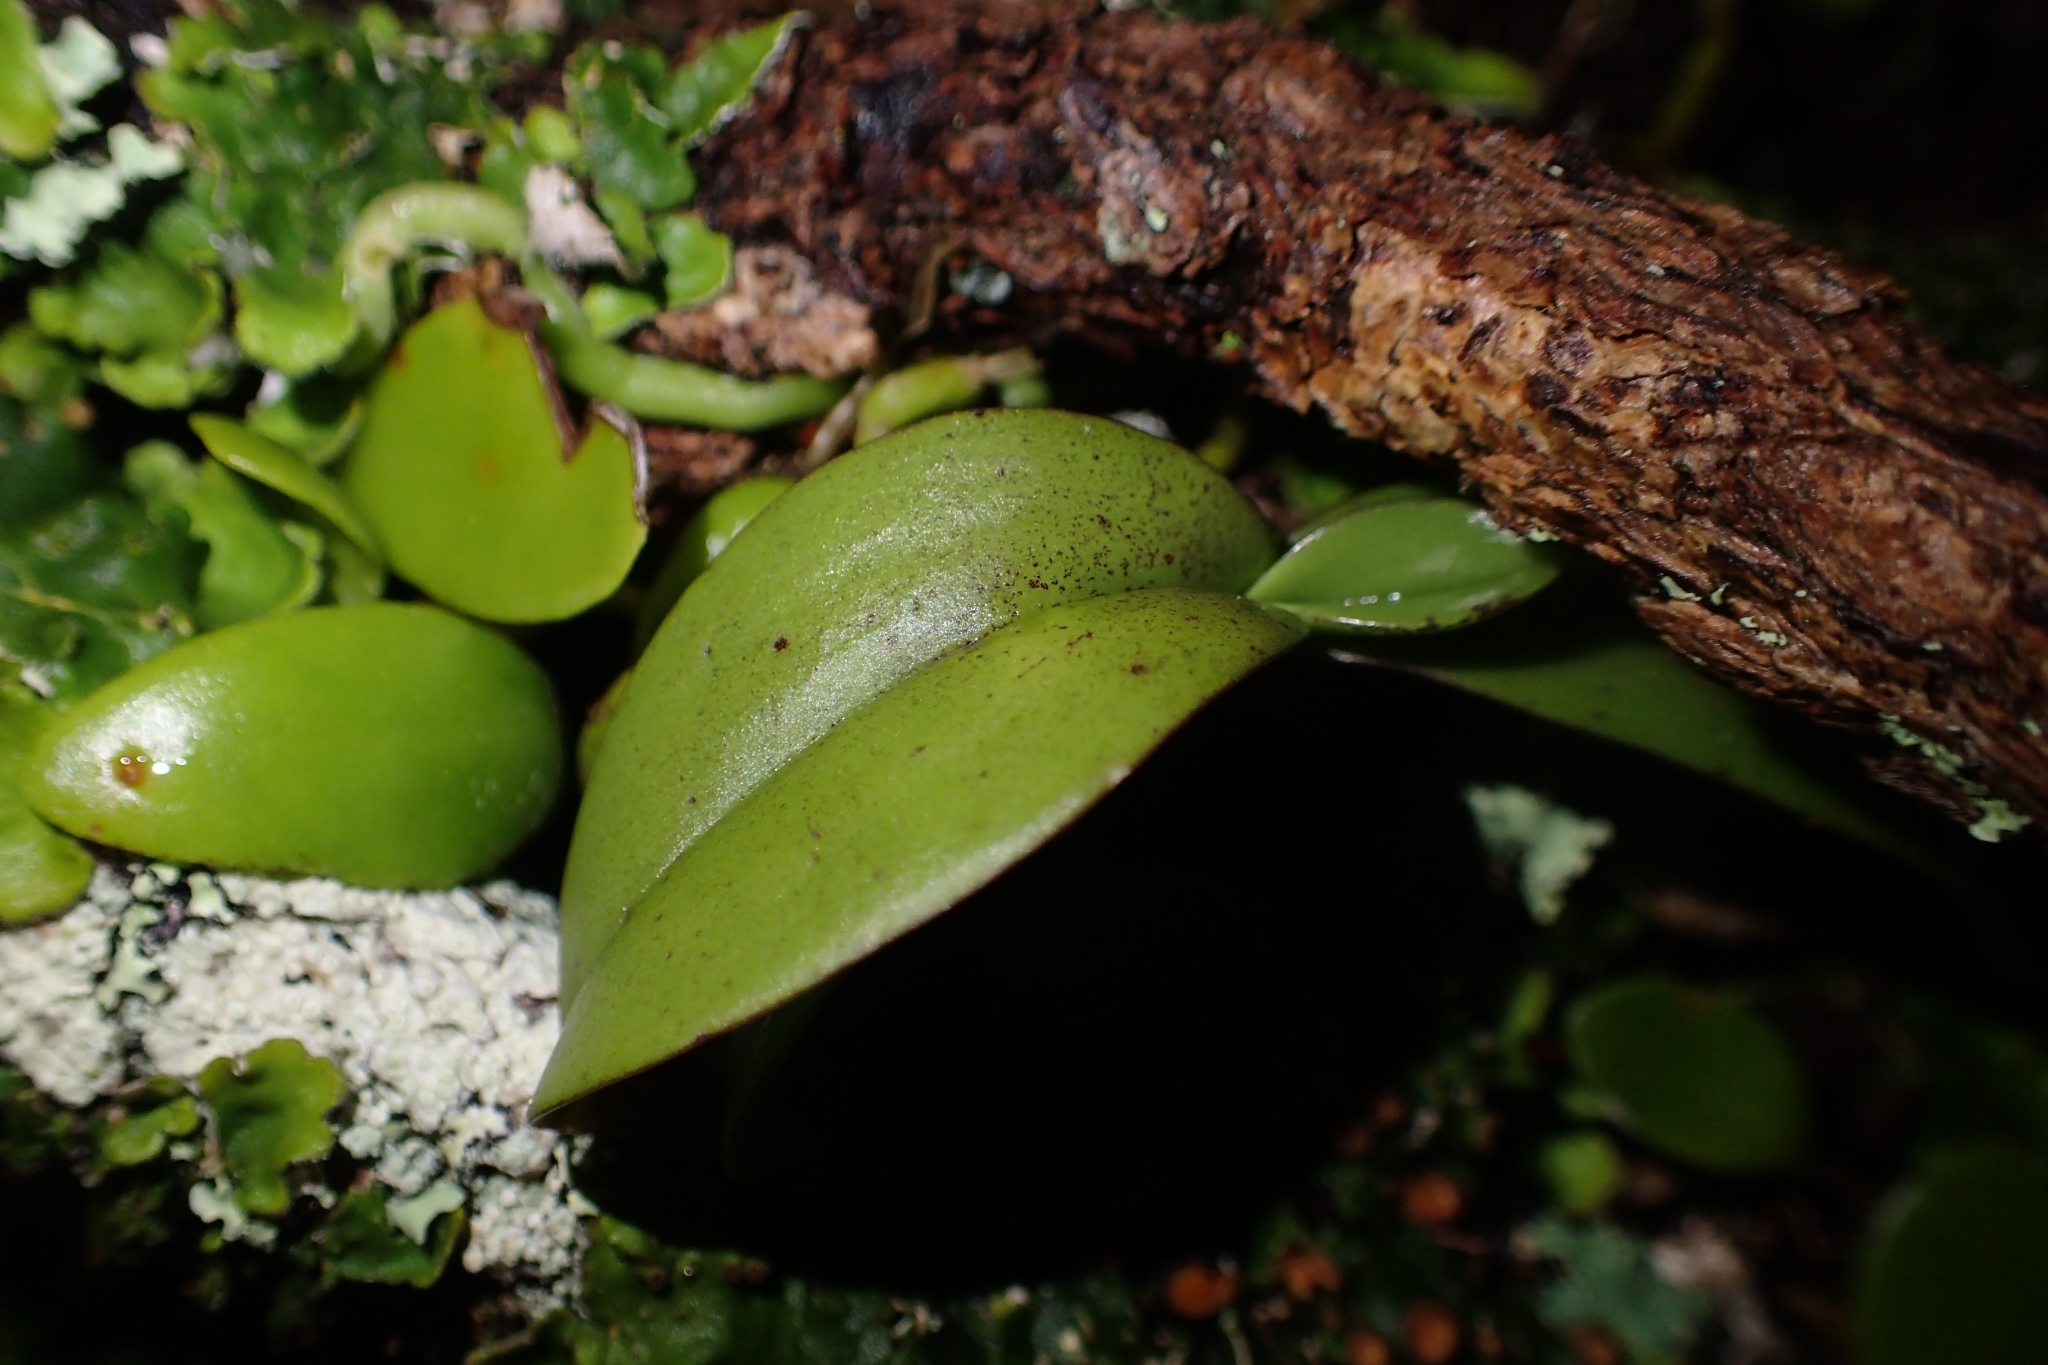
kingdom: Plantae
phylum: Tracheophyta
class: Liliopsida
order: Asparagales
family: Orchidaceae
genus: Drymoanthus
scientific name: Drymoanthus adversus
